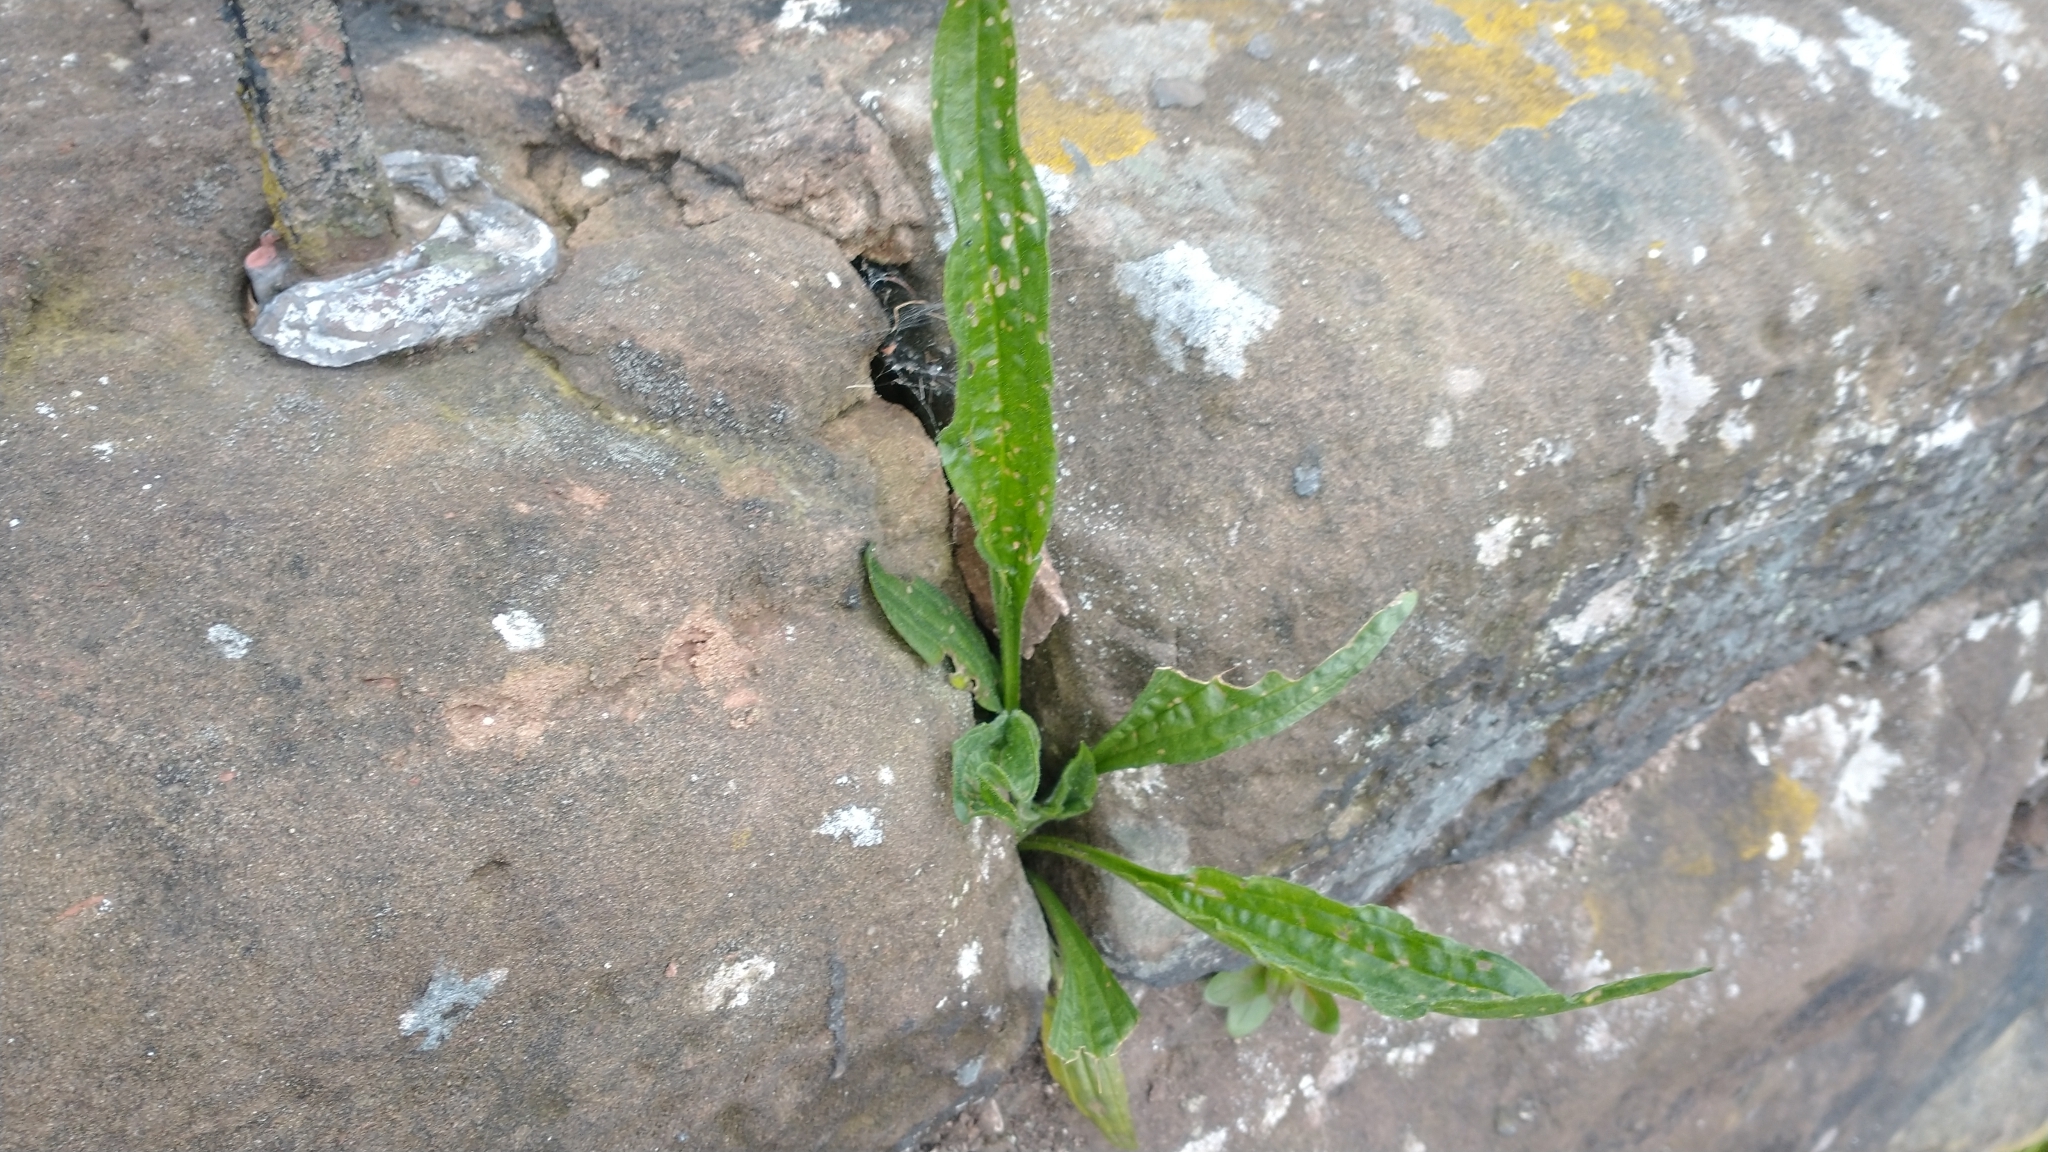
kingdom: Plantae
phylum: Tracheophyta
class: Magnoliopsida
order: Lamiales
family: Plantaginaceae
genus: Plantago
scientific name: Plantago lanceolata
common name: Ribwort plantain
